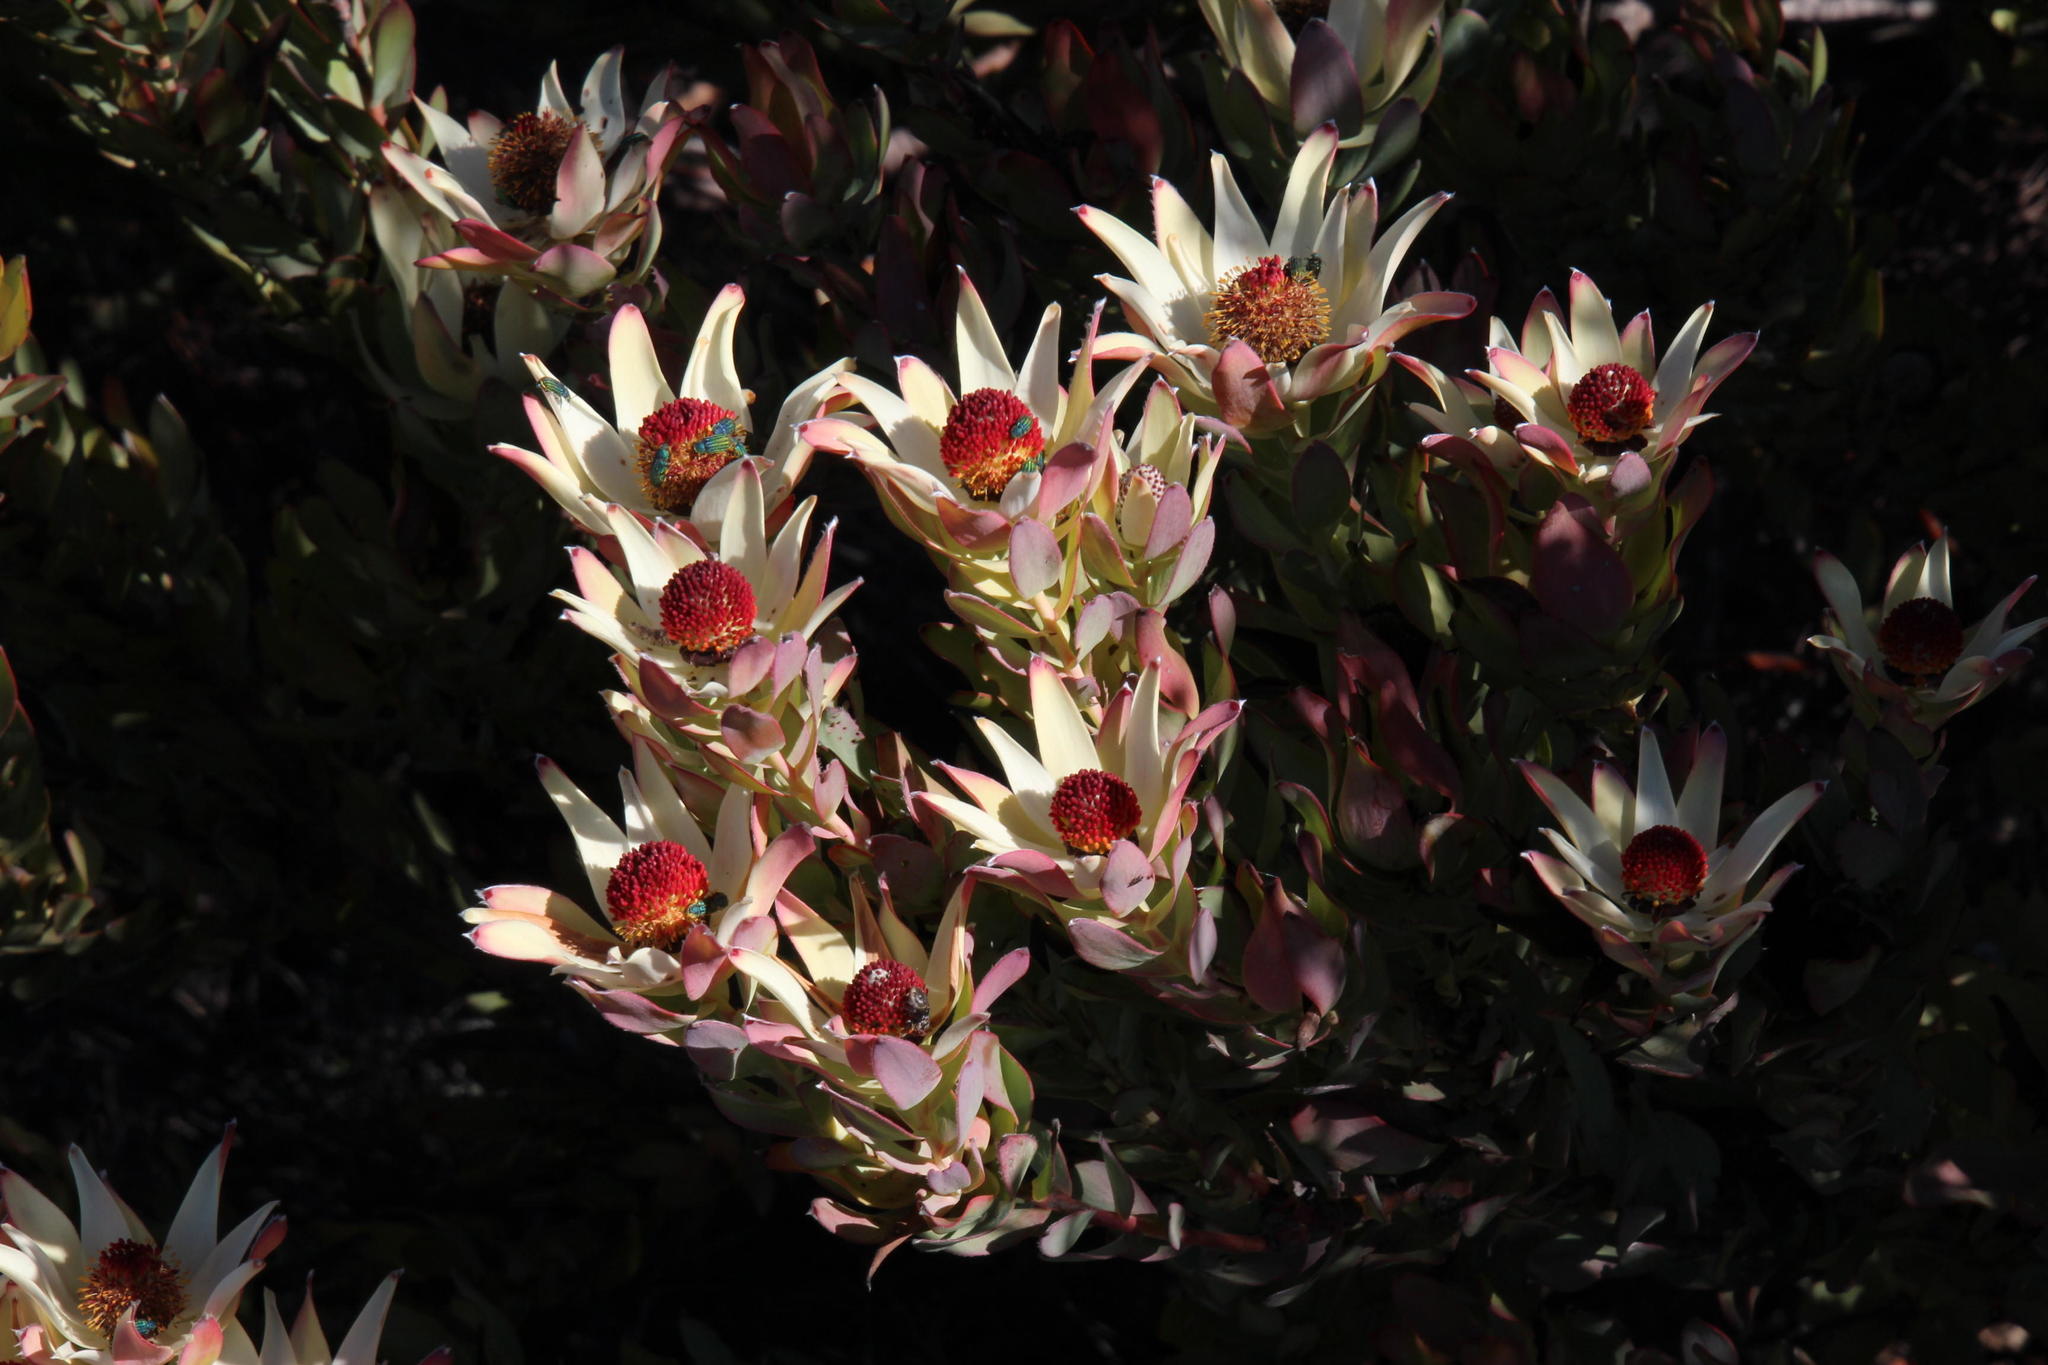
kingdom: Plantae
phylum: Tracheophyta
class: Magnoliopsida
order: Proteales
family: Proteaceae
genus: Leucadendron
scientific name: Leucadendron procerum
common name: Ivory conebush
